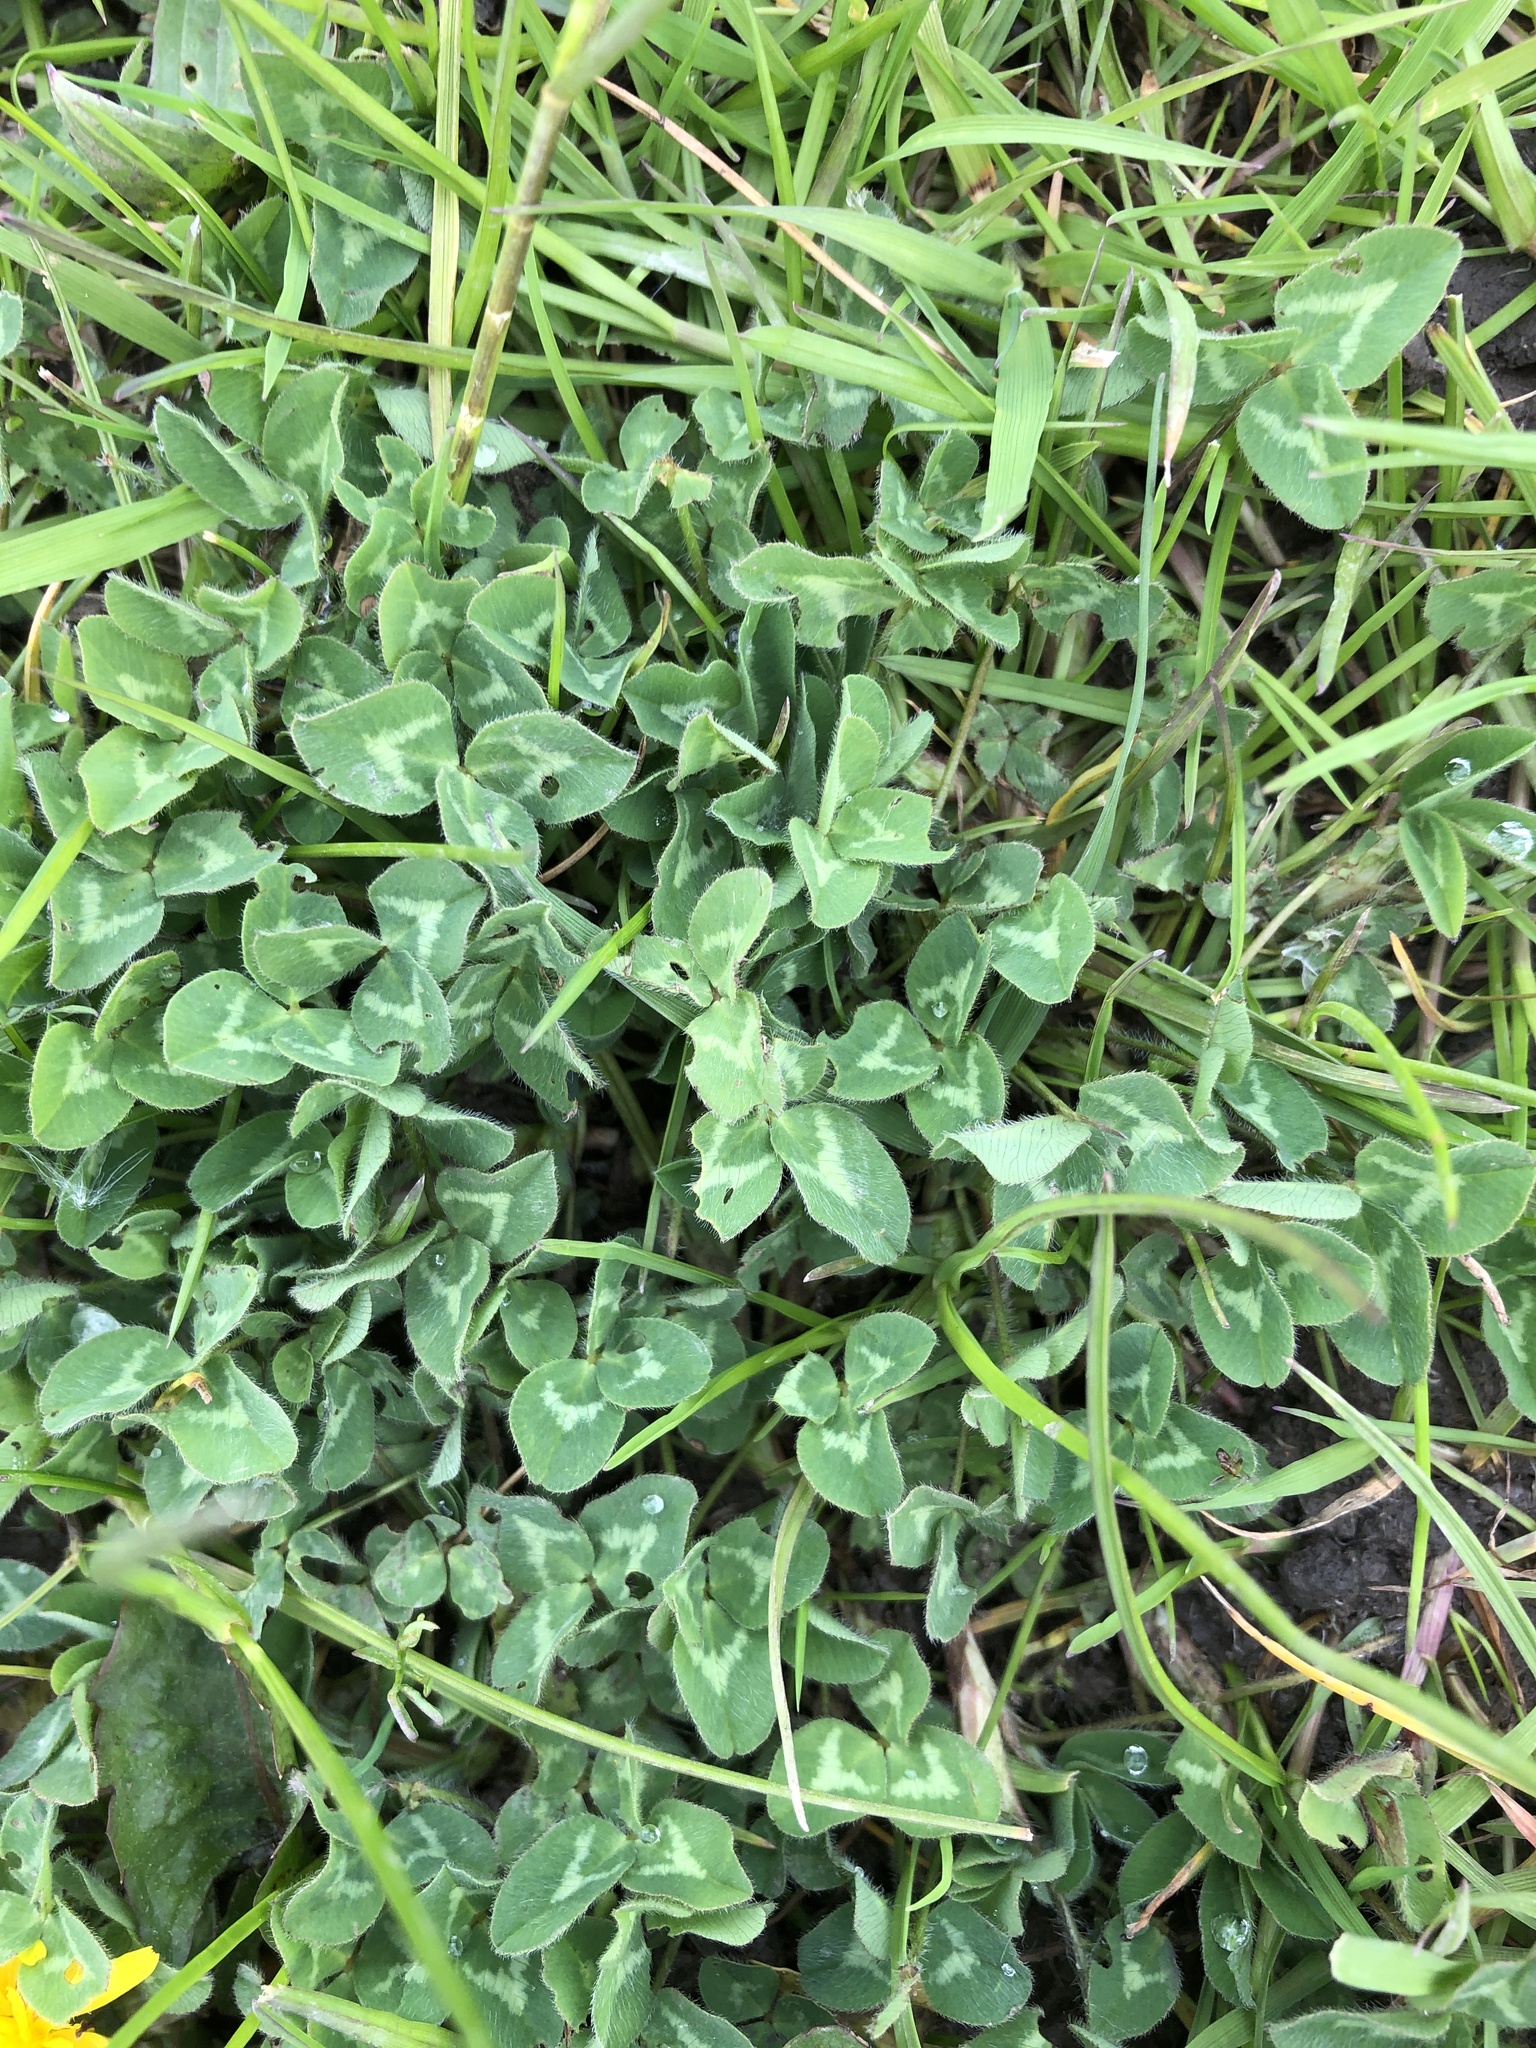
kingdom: Plantae
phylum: Tracheophyta
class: Magnoliopsida
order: Fabales
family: Fabaceae
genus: Trifolium
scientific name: Trifolium repens
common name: White clover
